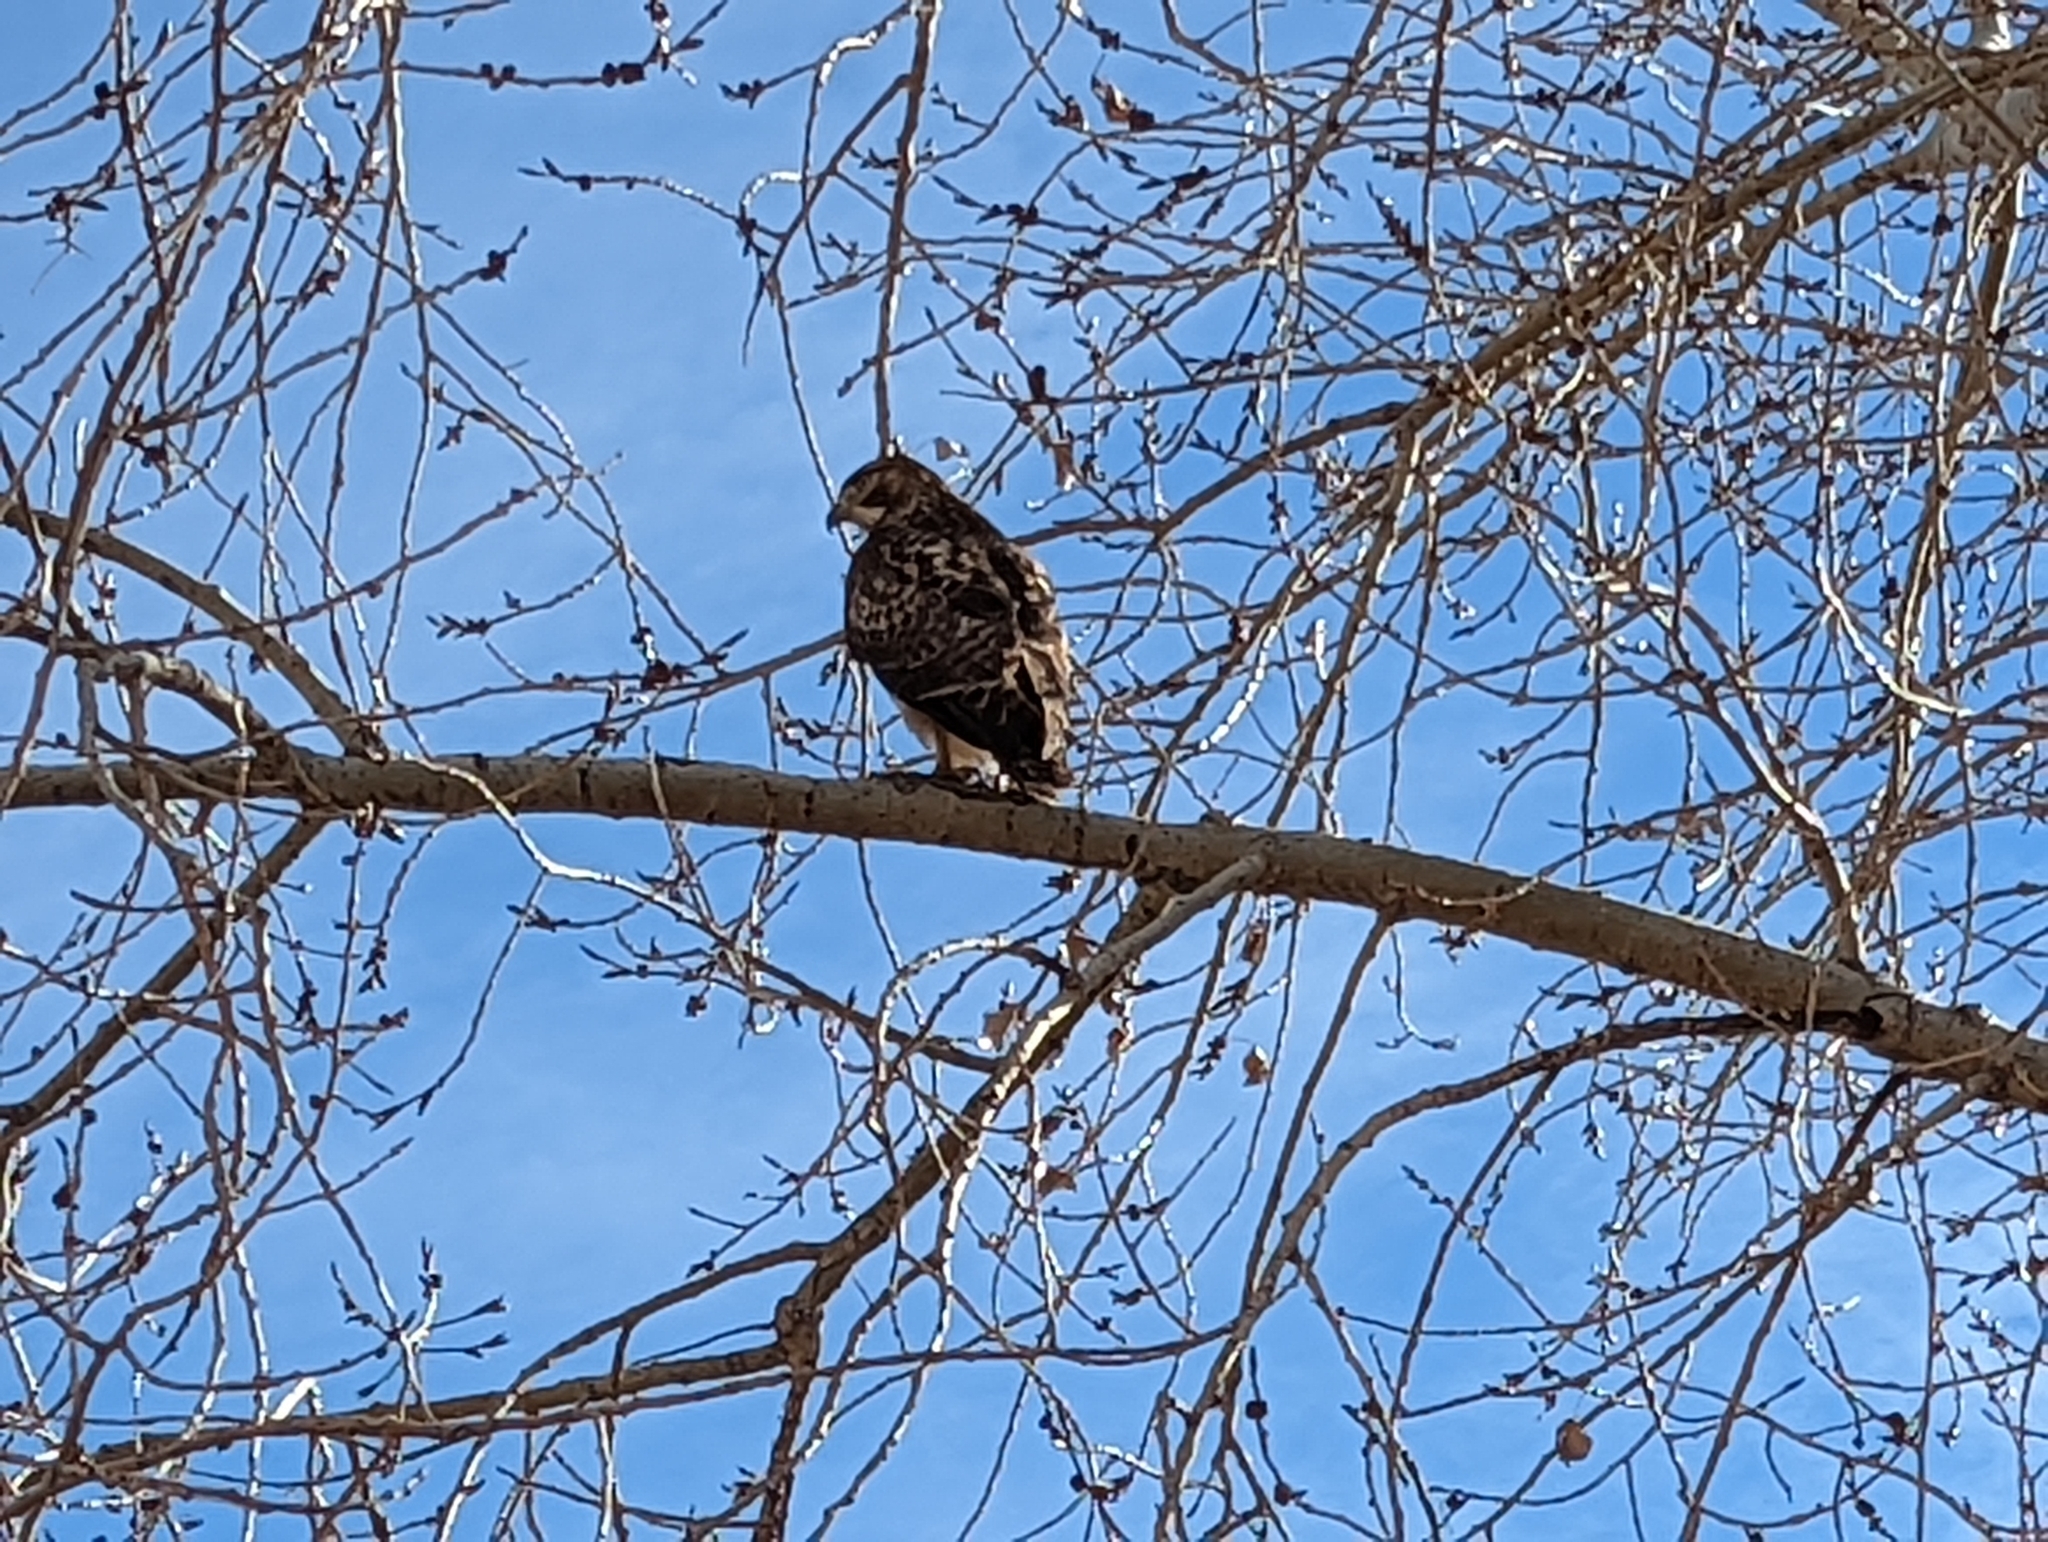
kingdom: Animalia
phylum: Chordata
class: Aves
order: Accipitriformes
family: Accipitridae
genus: Buteo
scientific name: Buteo jamaicensis
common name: Red-tailed hawk
